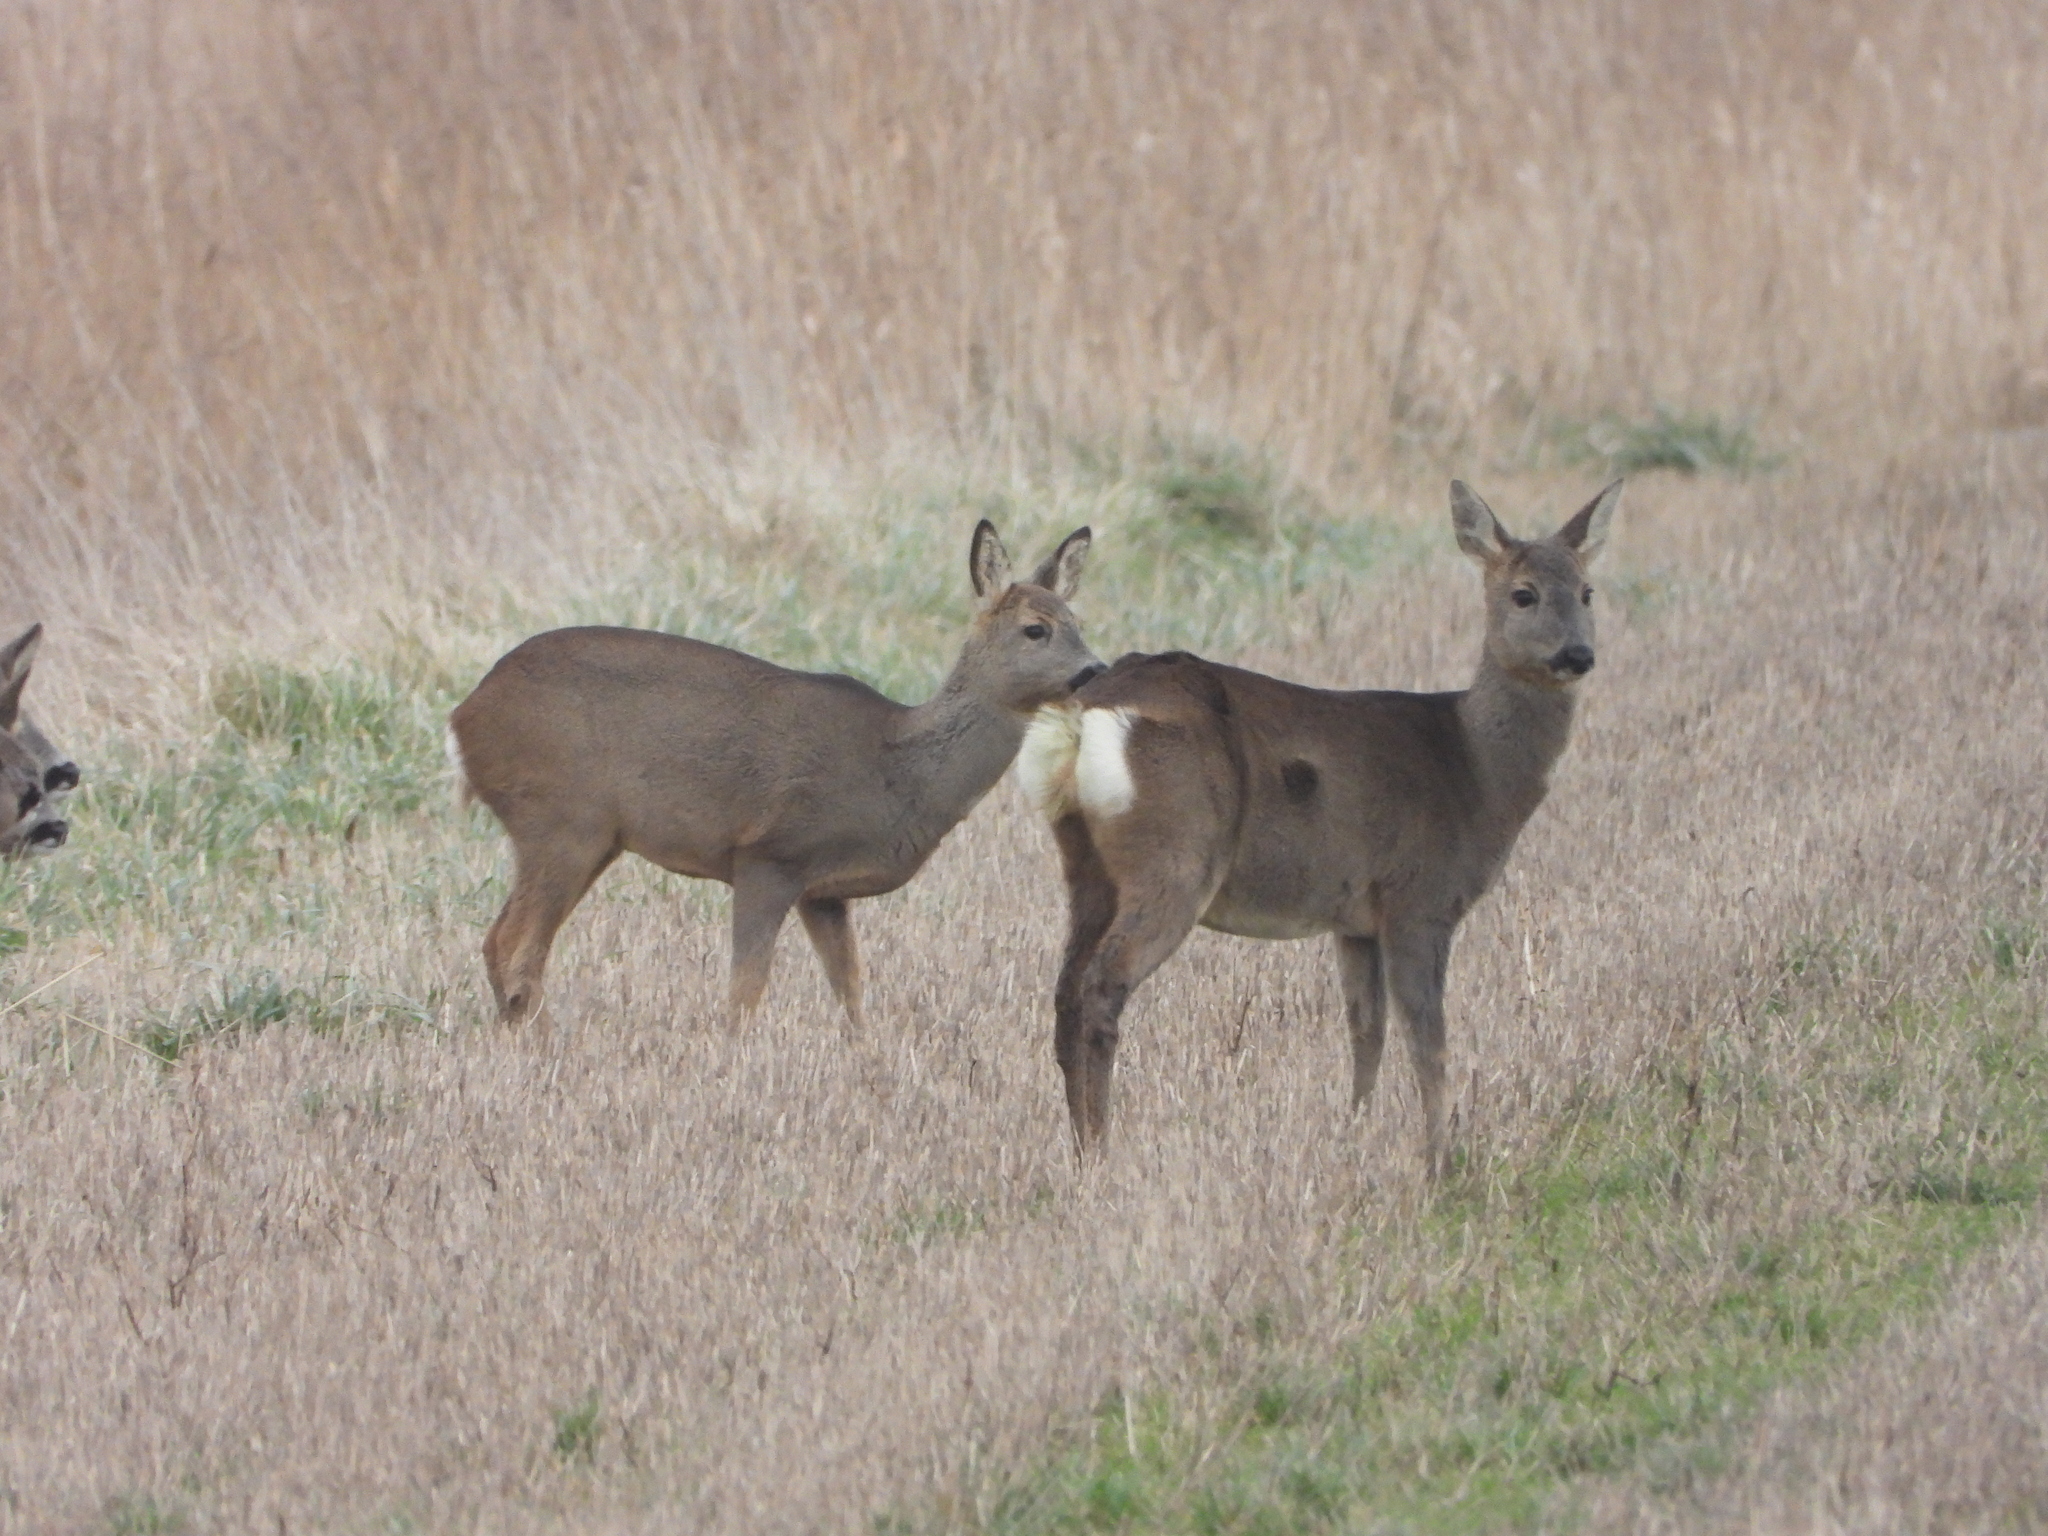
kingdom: Animalia
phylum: Chordata
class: Mammalia
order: Artiodactyla
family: Cervidae
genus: Capreolus
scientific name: Capreolus capreolus
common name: Western roe deer
